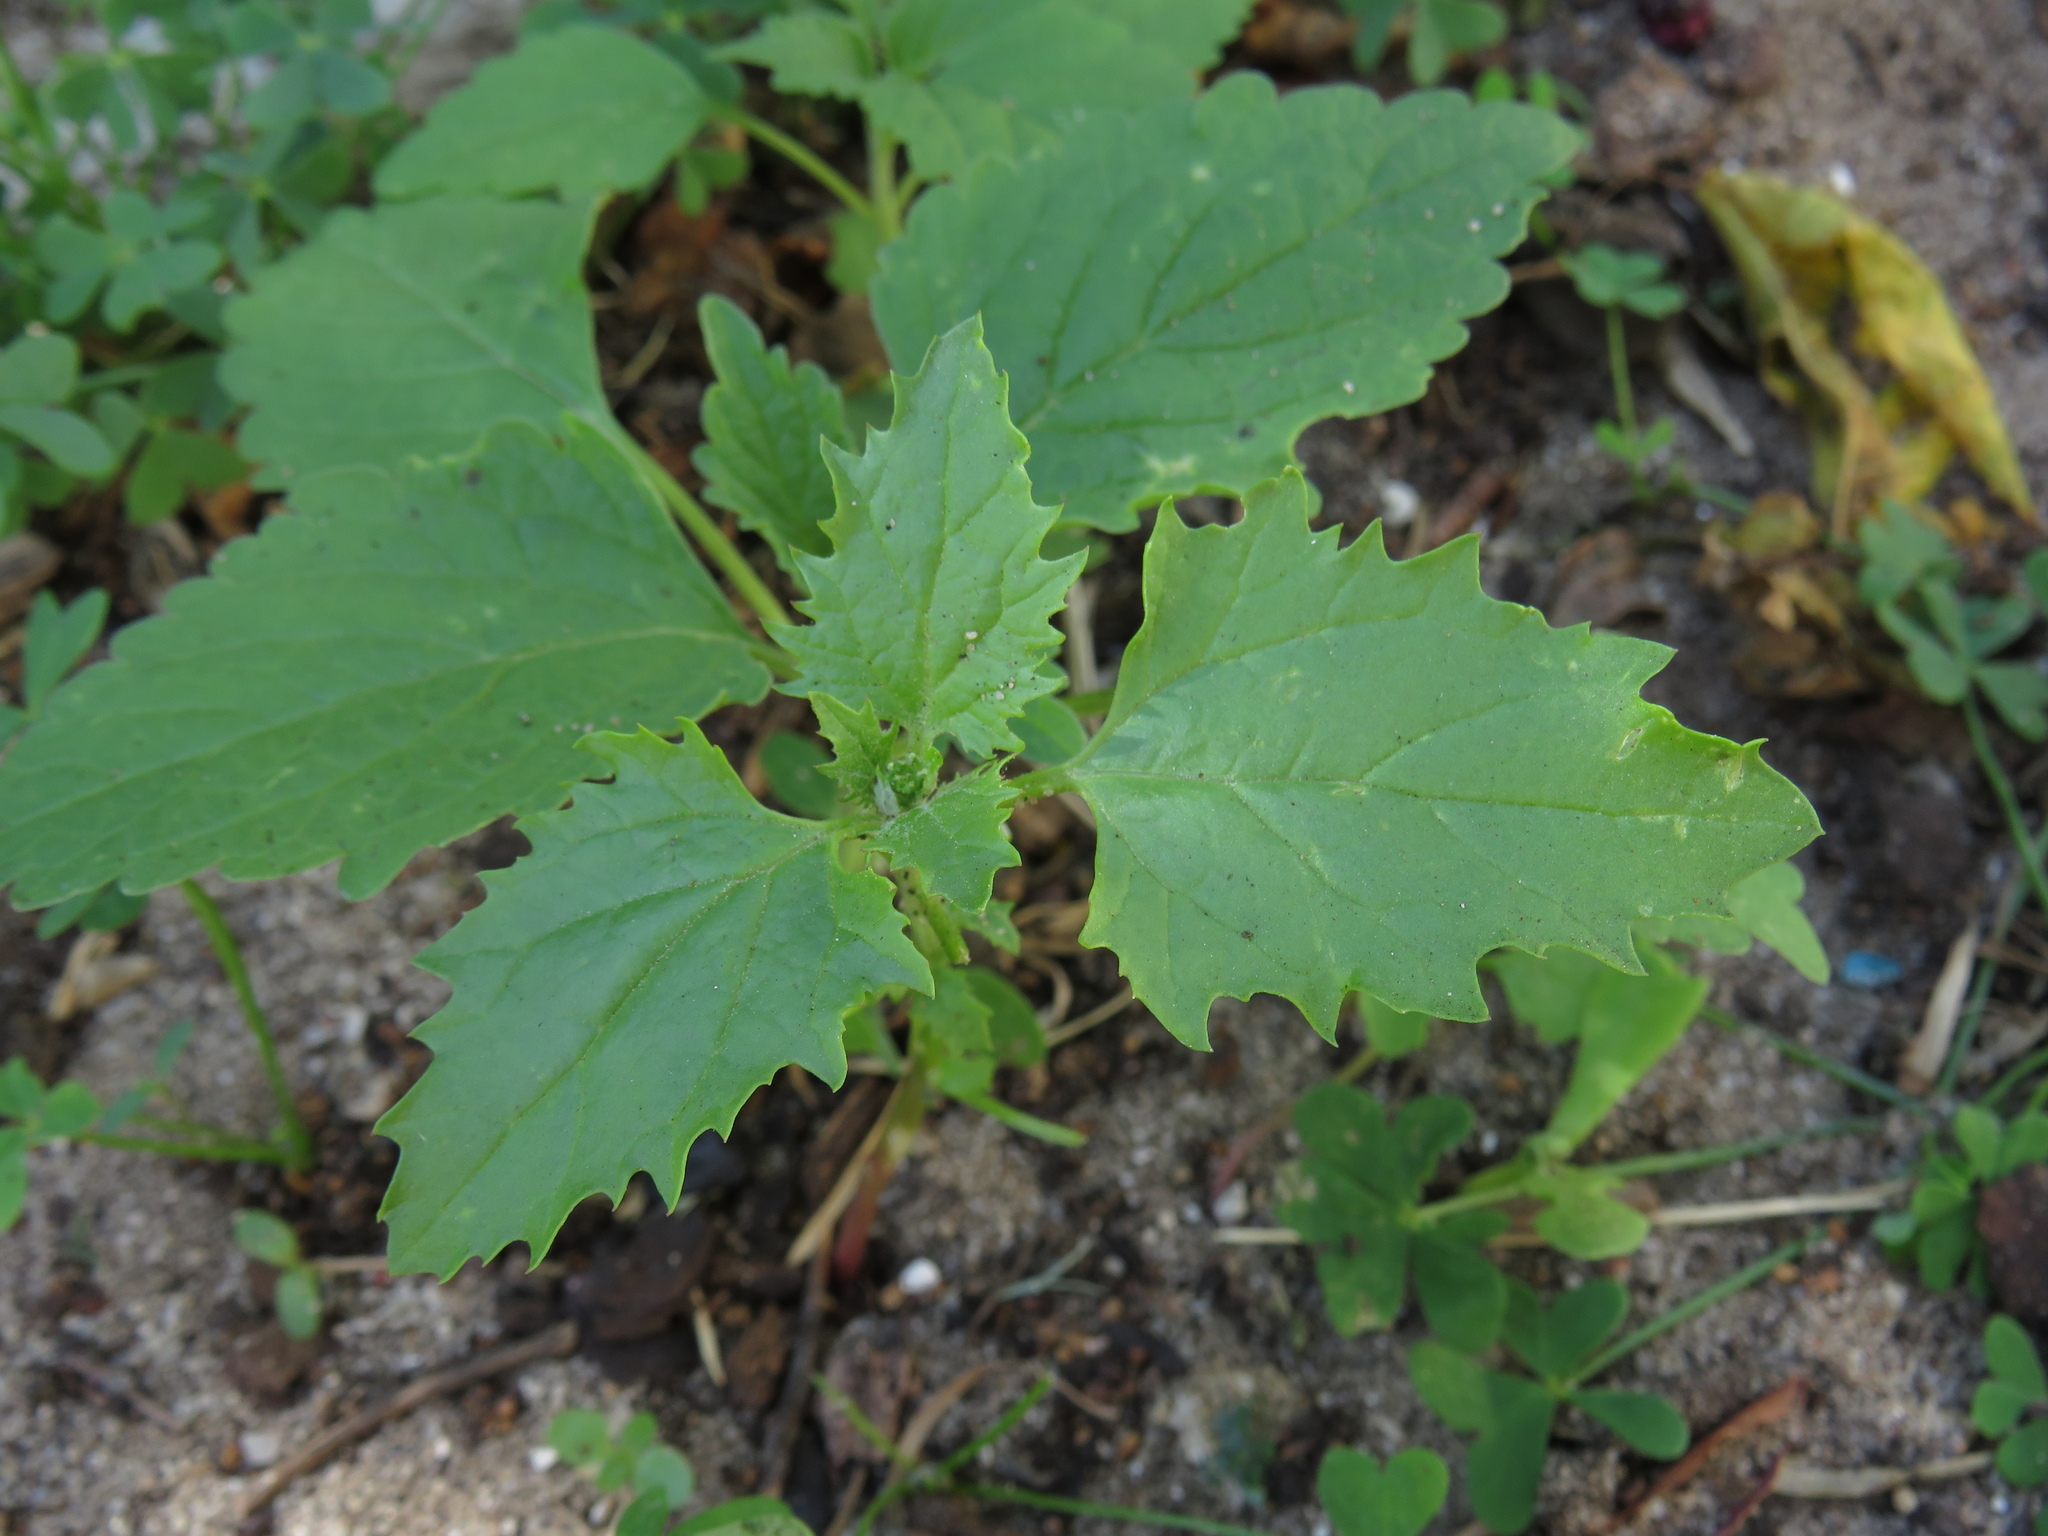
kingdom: Plantae
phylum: Tracheophyta
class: Magnoliopsida
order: Caryophyllales
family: Amaranthaceae
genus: Chenopodiastrum
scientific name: Chenopodiastrum murale
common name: Sowbane
